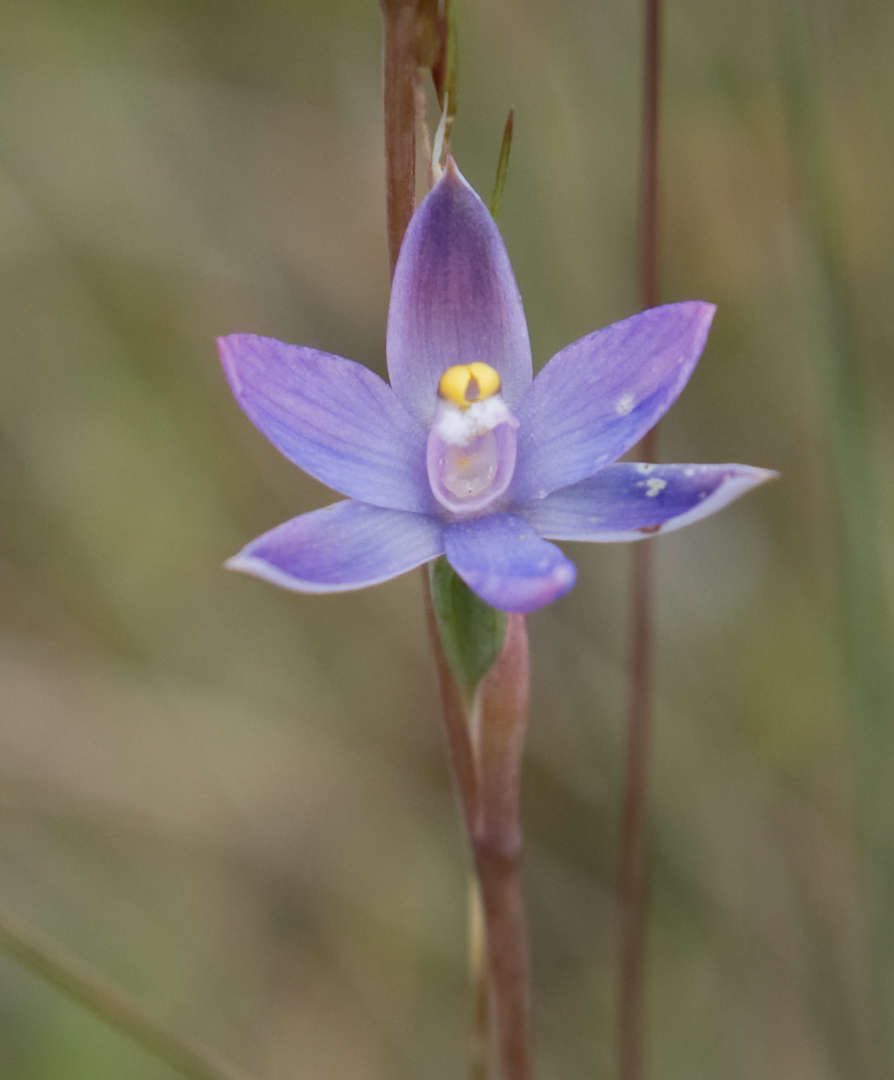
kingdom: Plantae
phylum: Tracheophyta
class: Liliopsida
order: Asparagales
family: Orchidaceae
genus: Thelymitra
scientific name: Thelymitra arenaria
